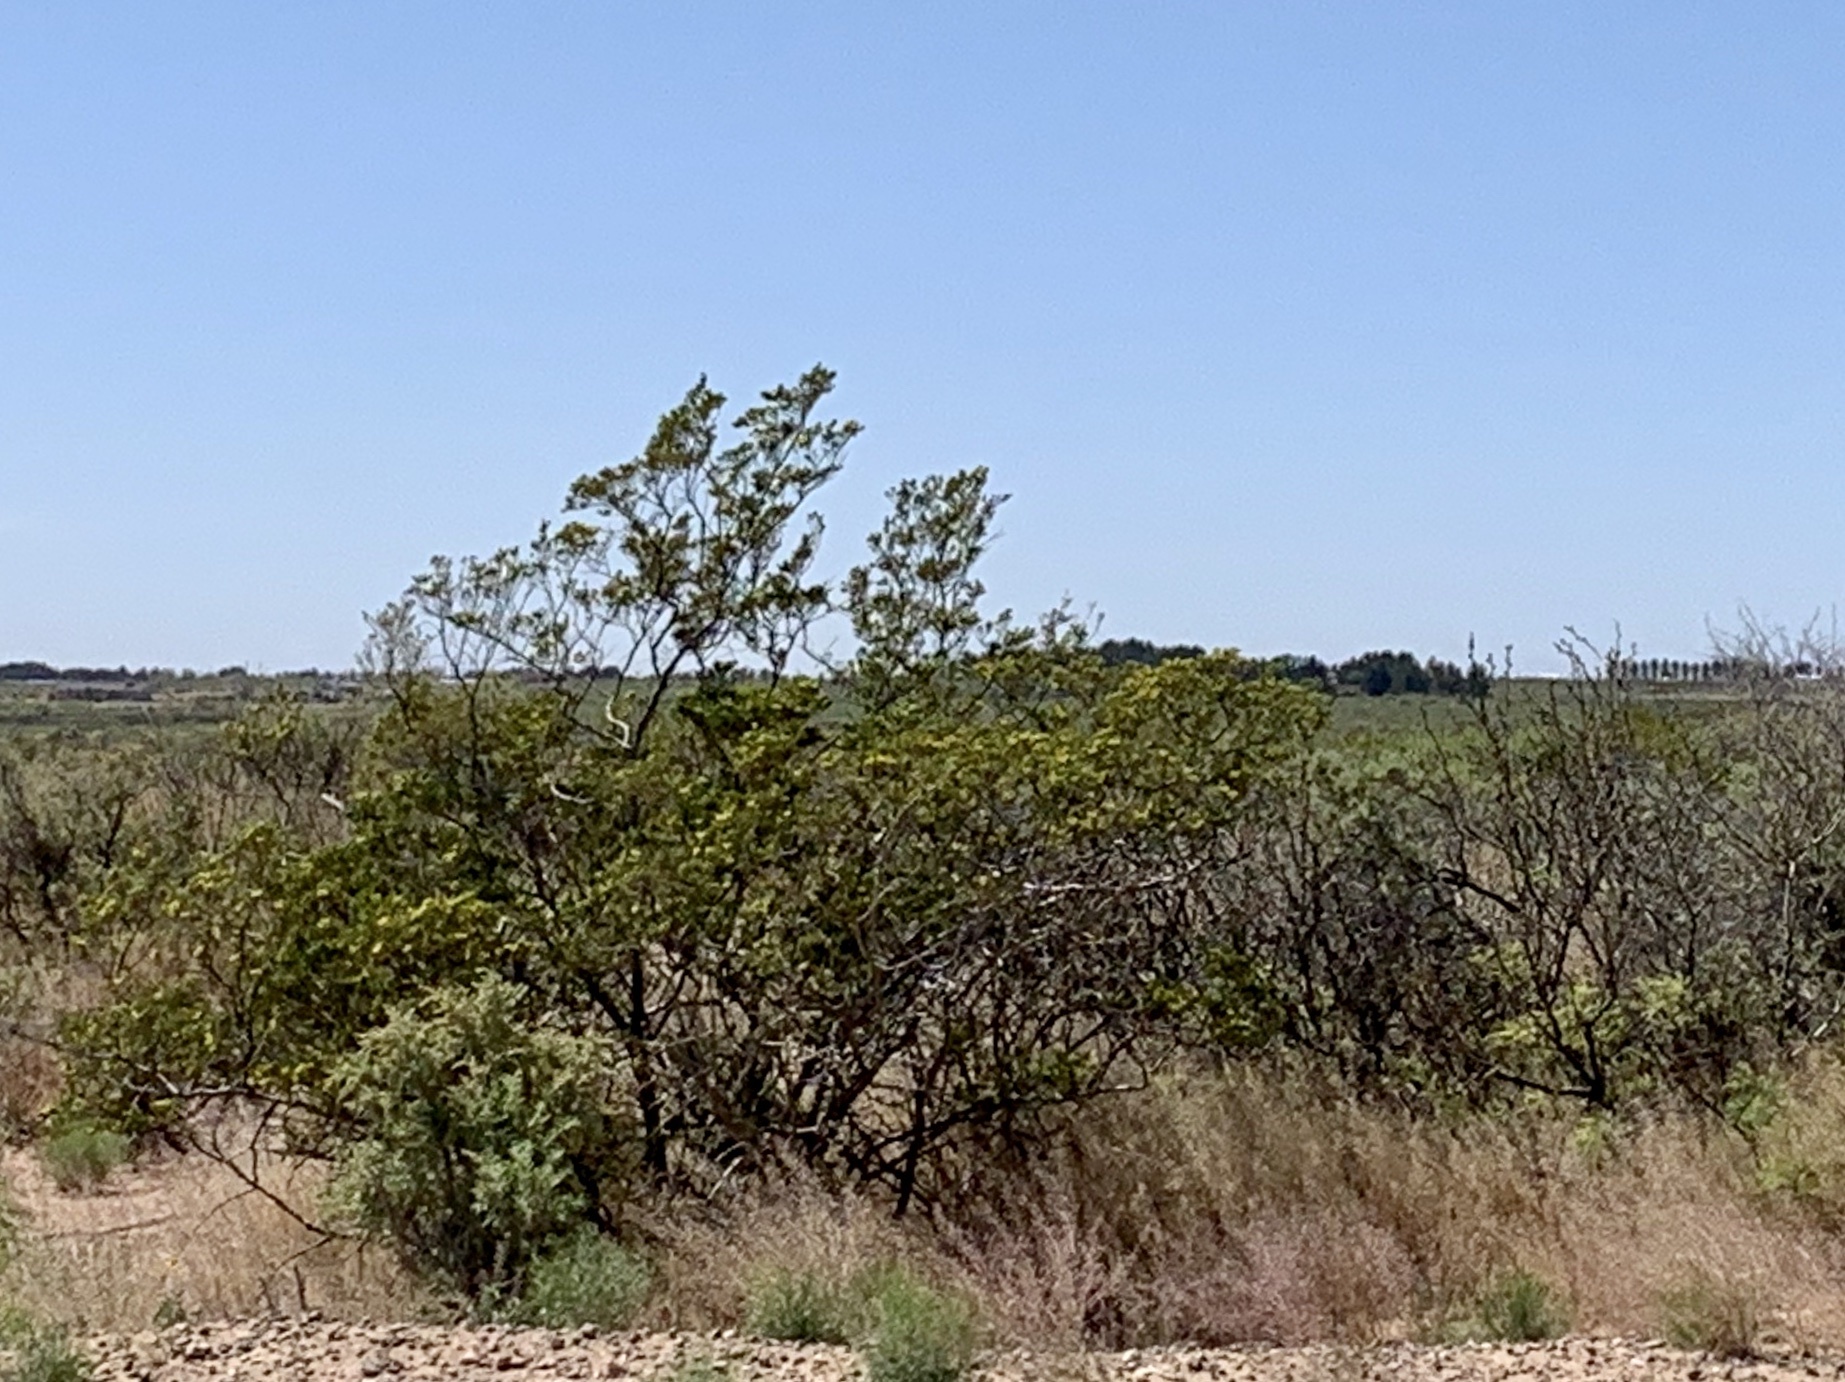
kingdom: Plantae
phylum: Tracheophyta
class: Magnoliopsida
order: Zygophyllales
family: Zygophyllaceae
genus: Larrea
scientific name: Larrea tridentata
